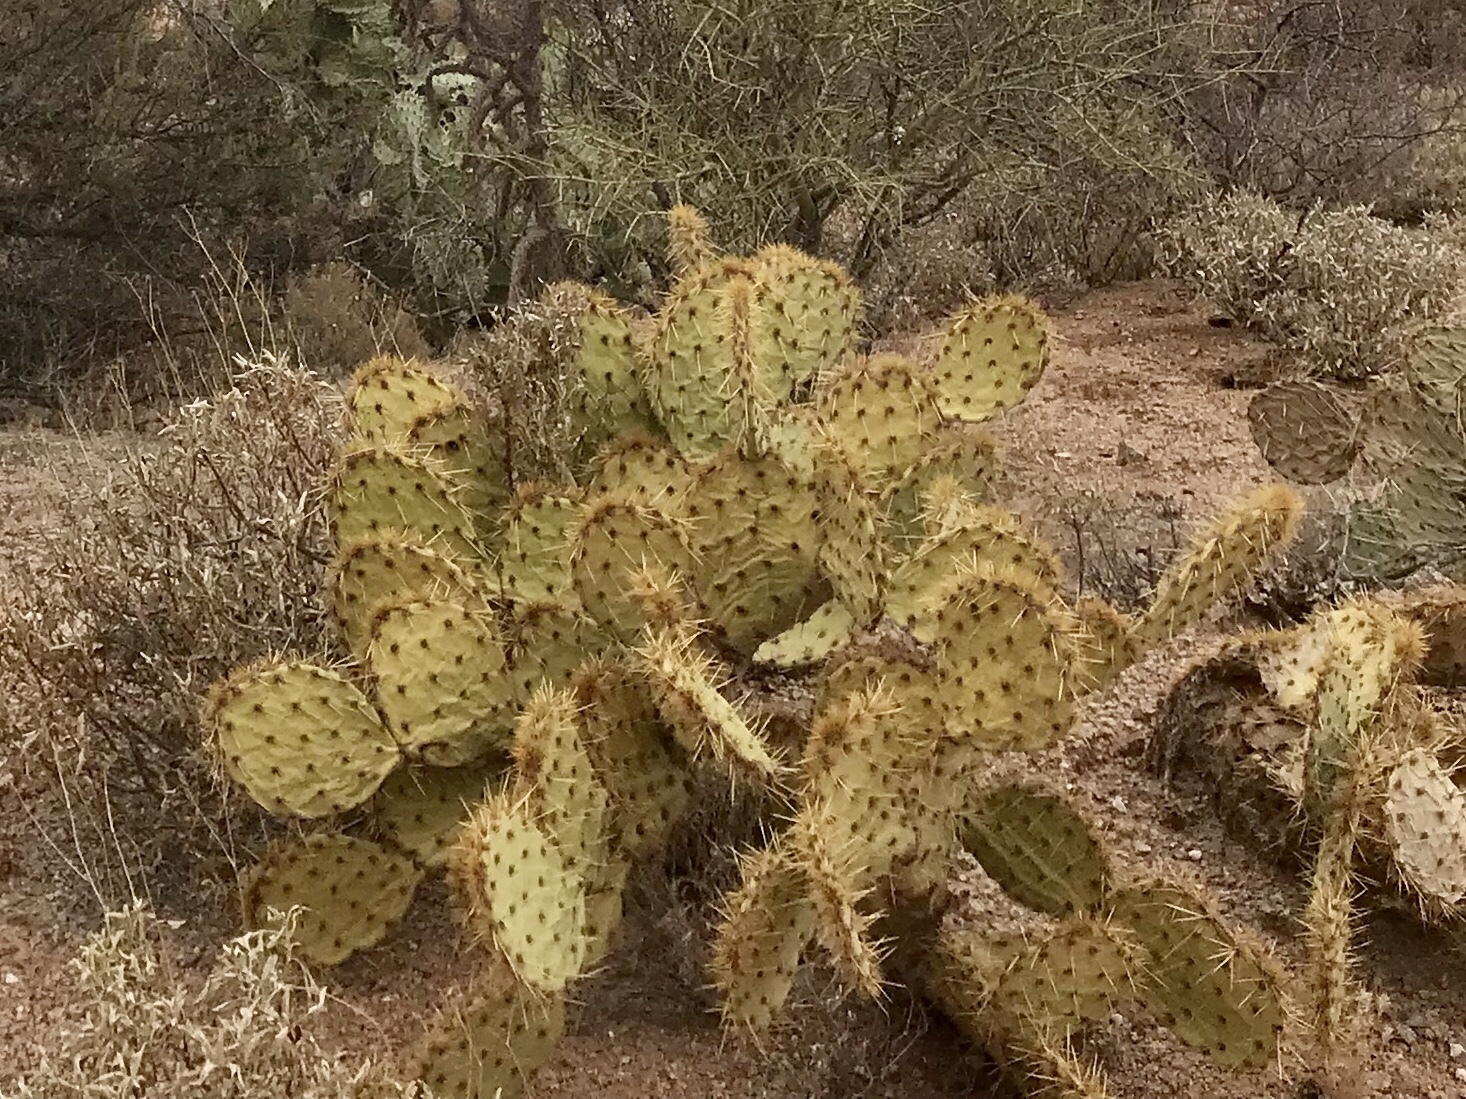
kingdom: Plantae
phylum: Tracheophyta
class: Magnoliopsida
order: Caryophyllales
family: Cactaceae
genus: Opuntia
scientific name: Opuntia engelmannii
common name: Cactus-apple
